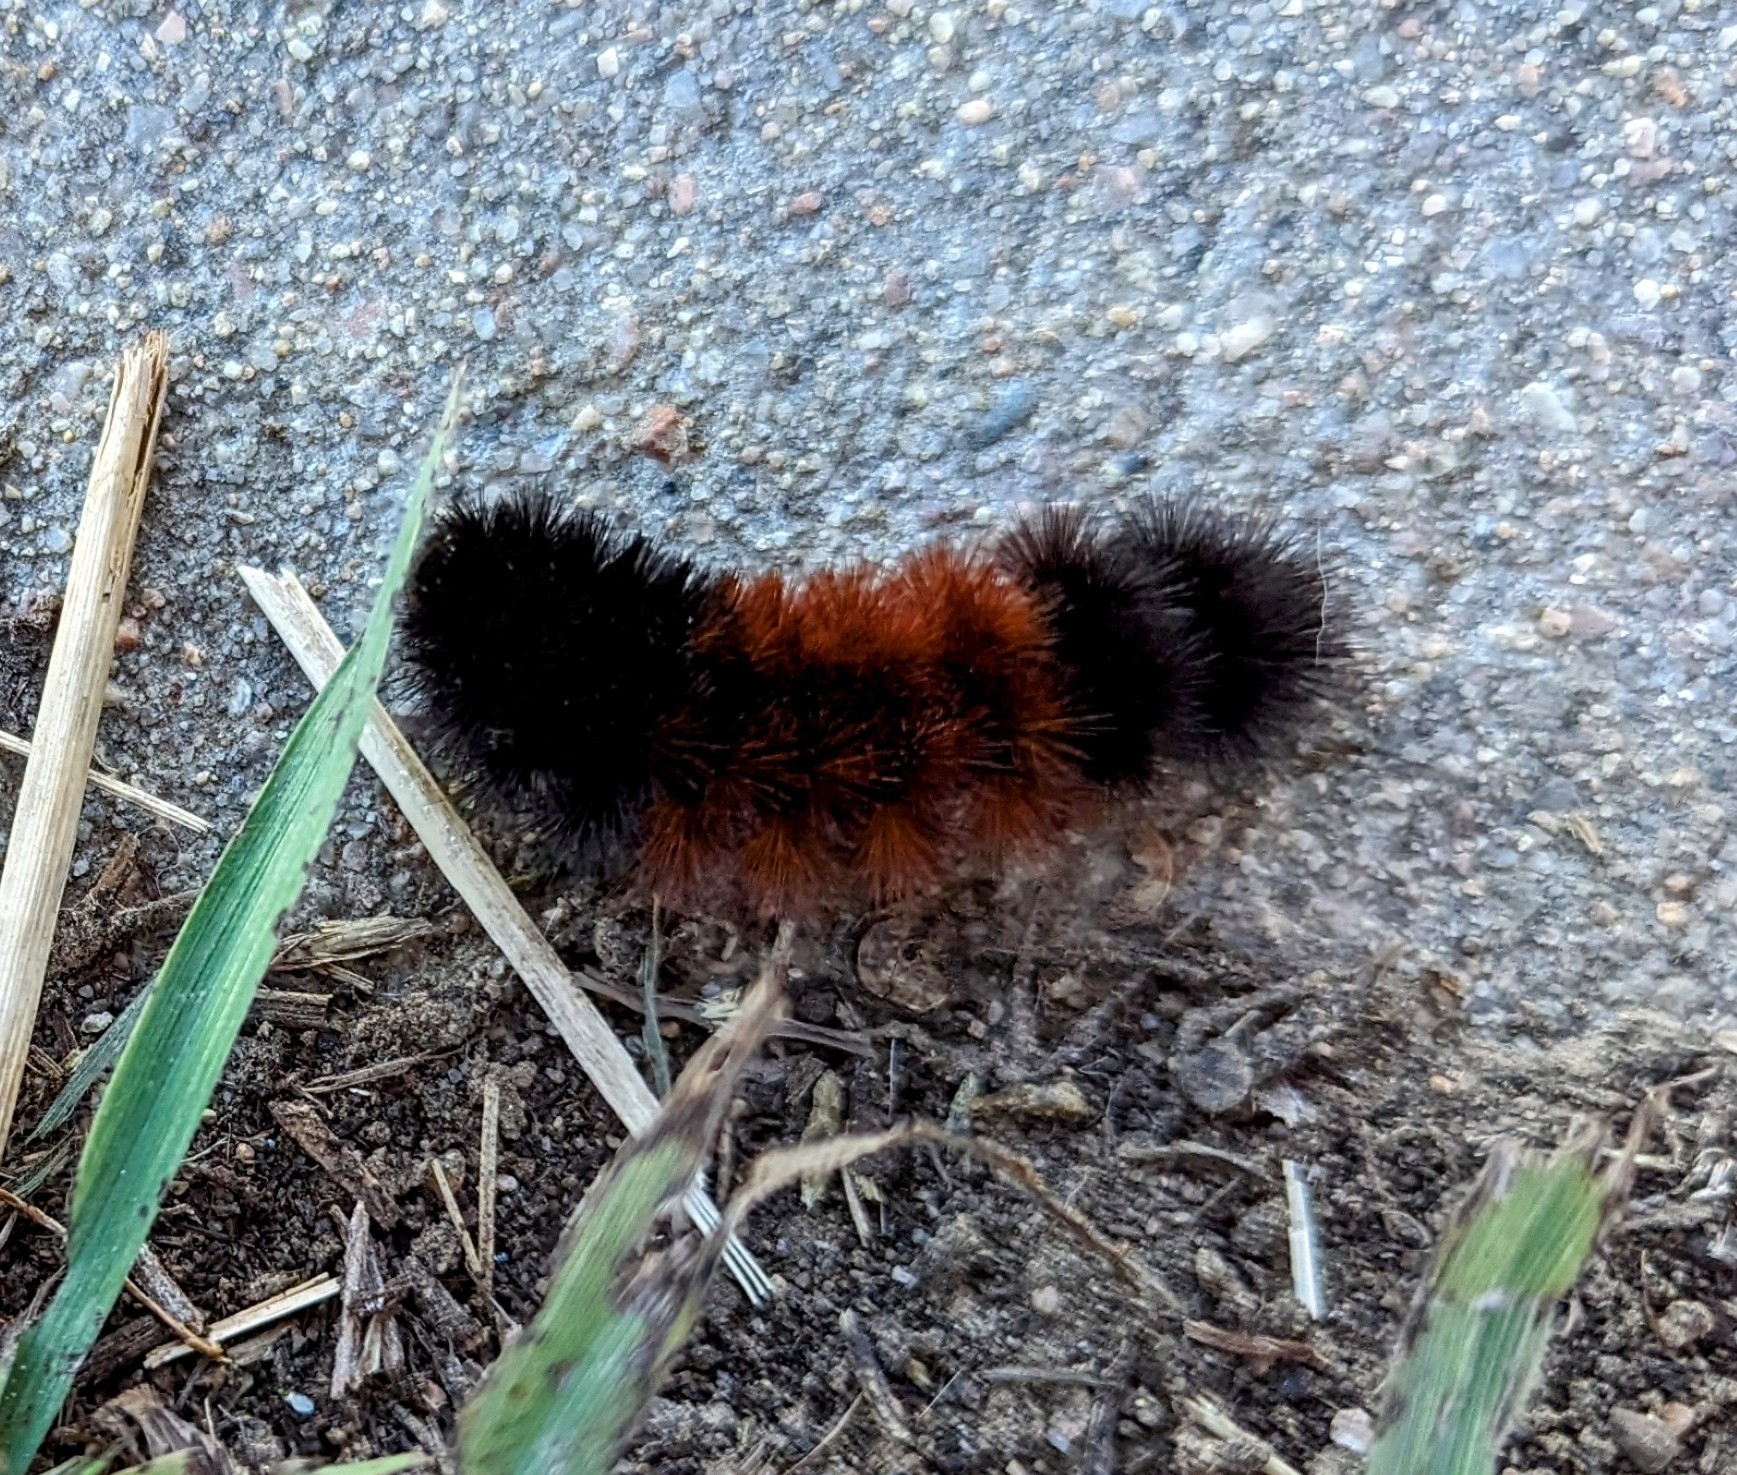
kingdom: Animalia
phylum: Arthropoda
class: Insecta
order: Lepidoptera
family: Erebidae
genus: Pyrrharctia
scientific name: Pyrrharctia isabella
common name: Isabella tiger moth
